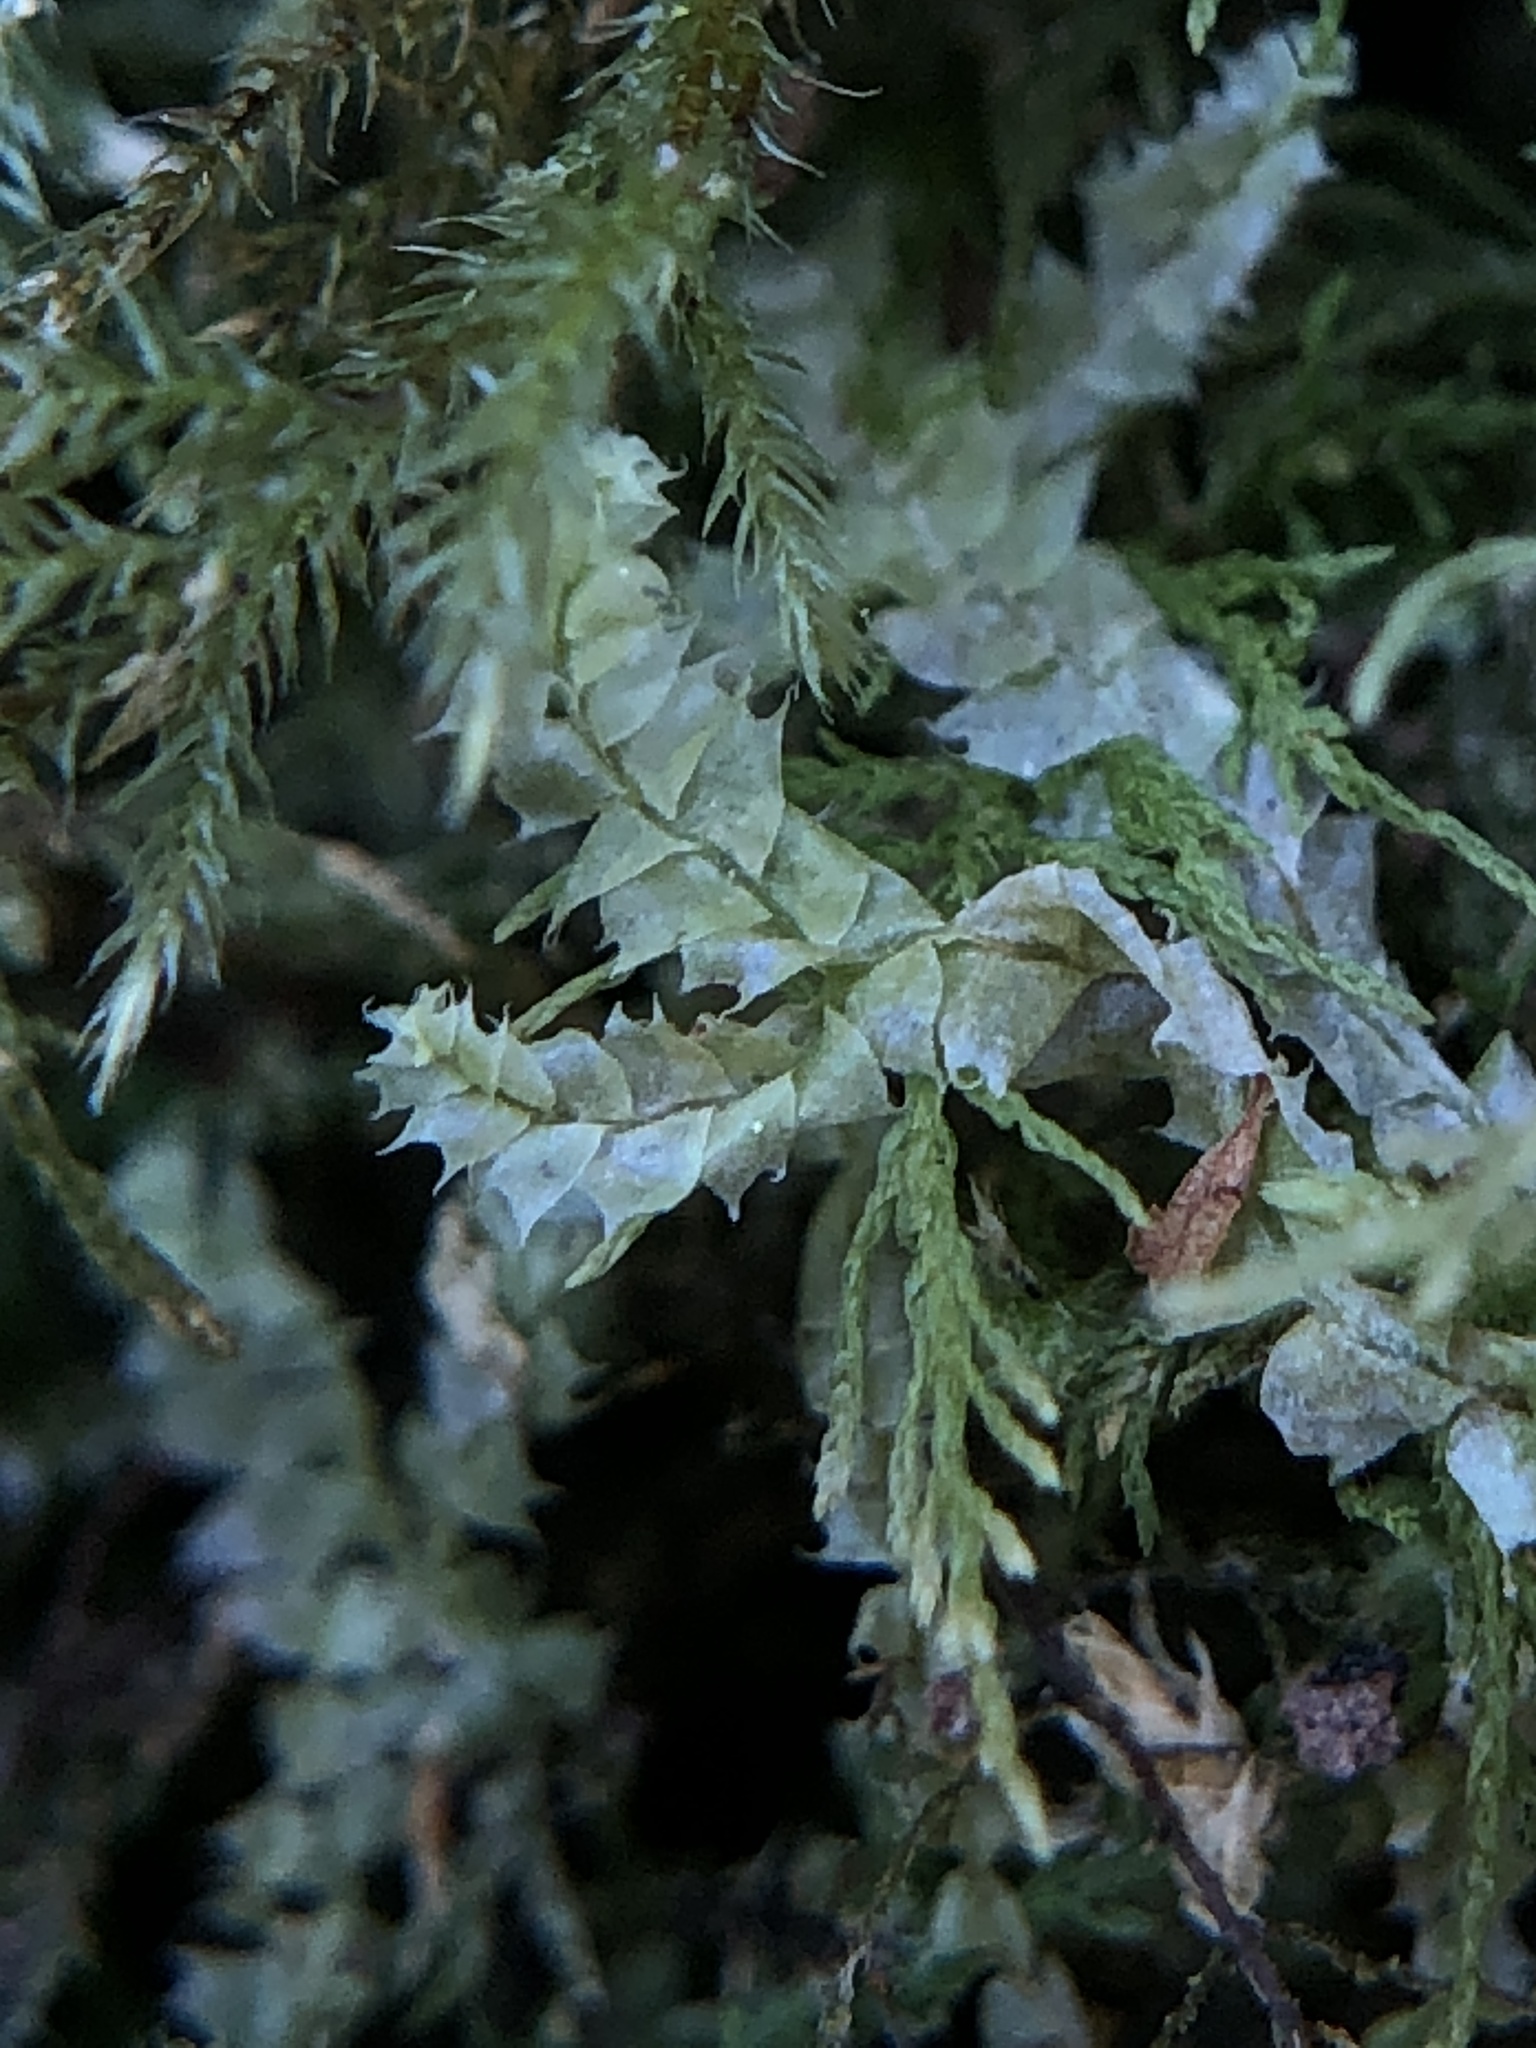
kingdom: Plantae
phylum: Marchantiophyta
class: Jungermanniopsida
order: Jungermanniales
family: Lophocoleaceae
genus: Lophocolea
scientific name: Lophocolea bidentata
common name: Bifid crestwort
